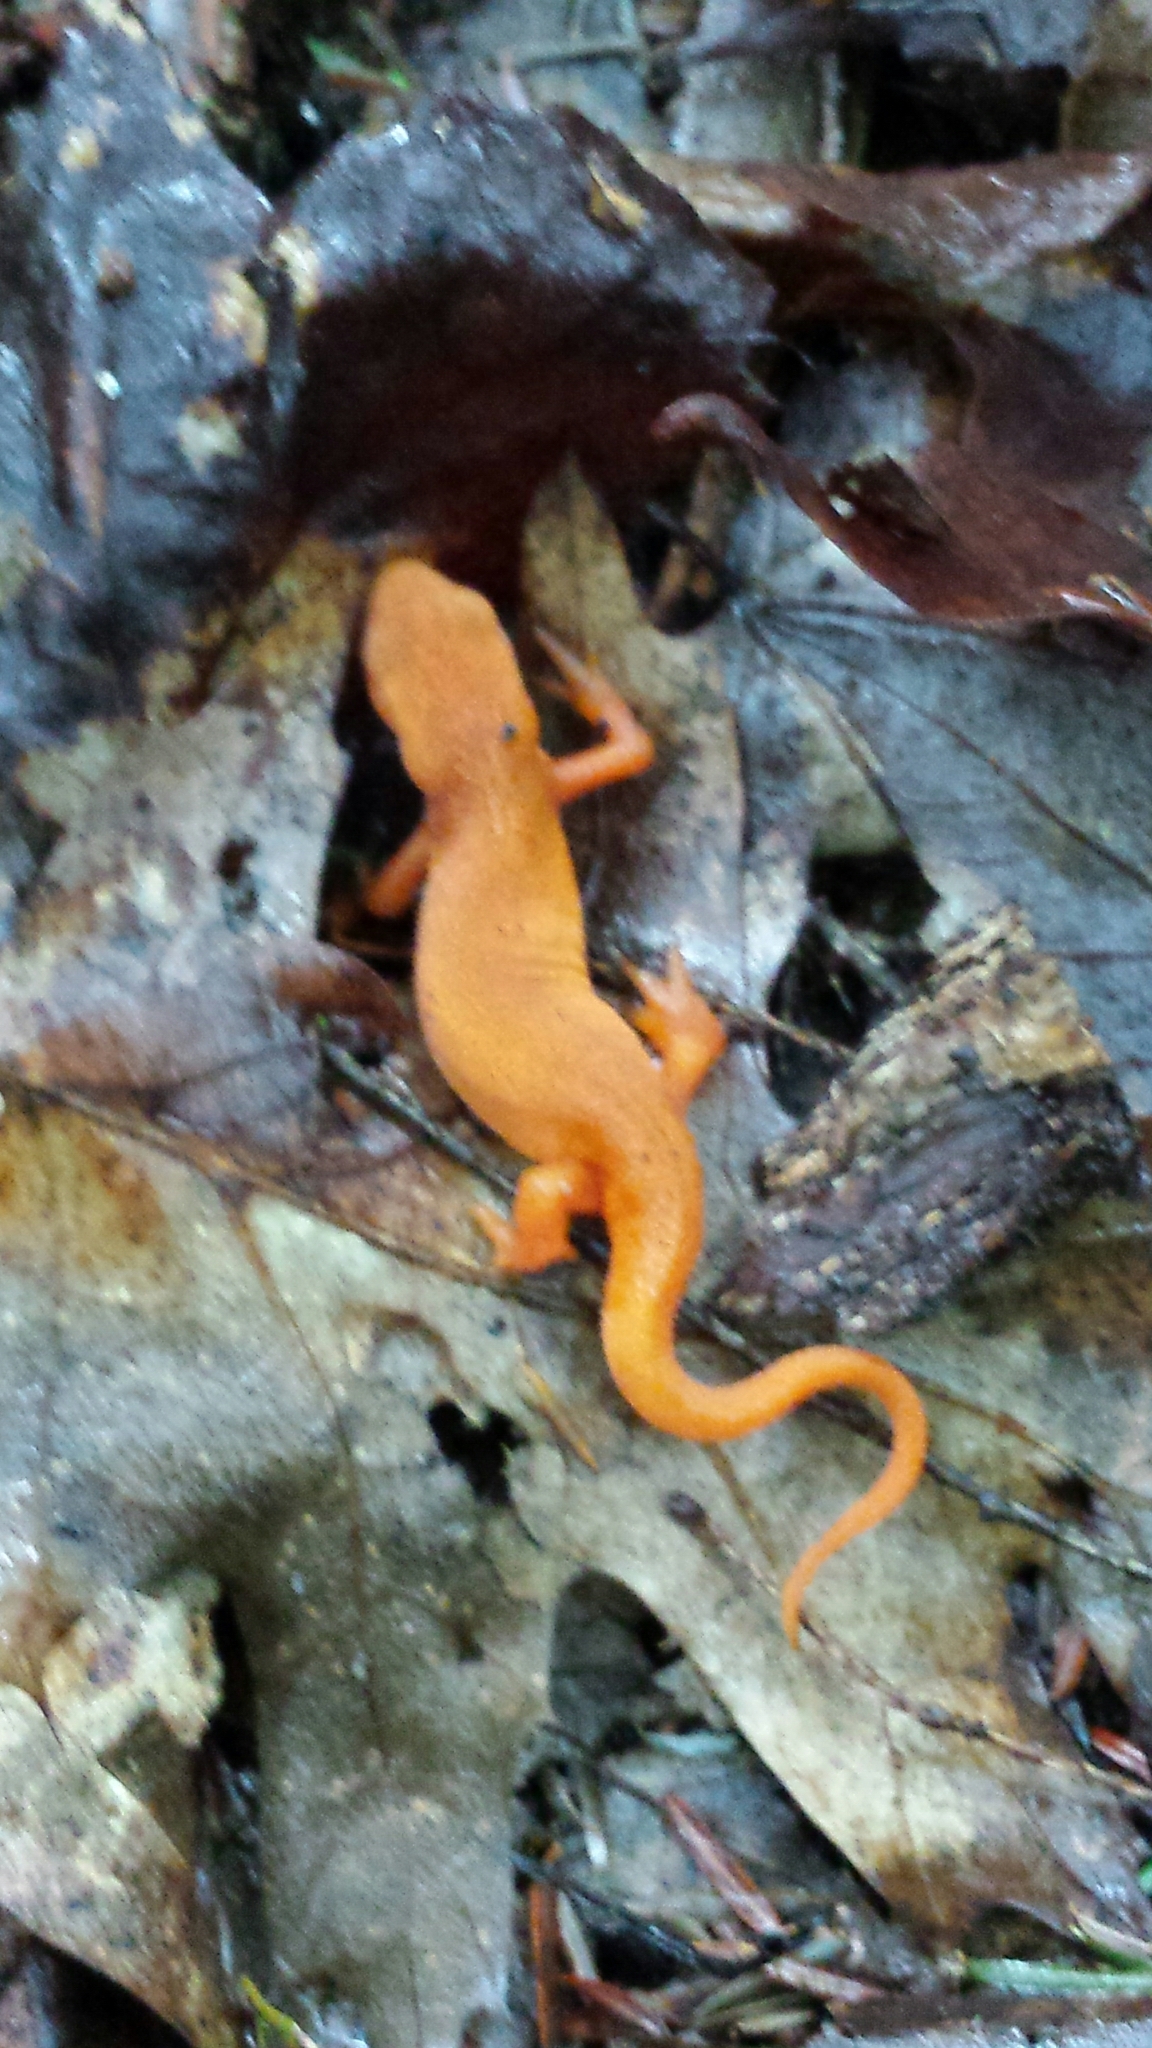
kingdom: Animalia
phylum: Chordata
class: Amphibia
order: Caudata
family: Salamandridae
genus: Notophthalmus
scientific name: Notophthalmus viridescens
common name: Eastern newt
